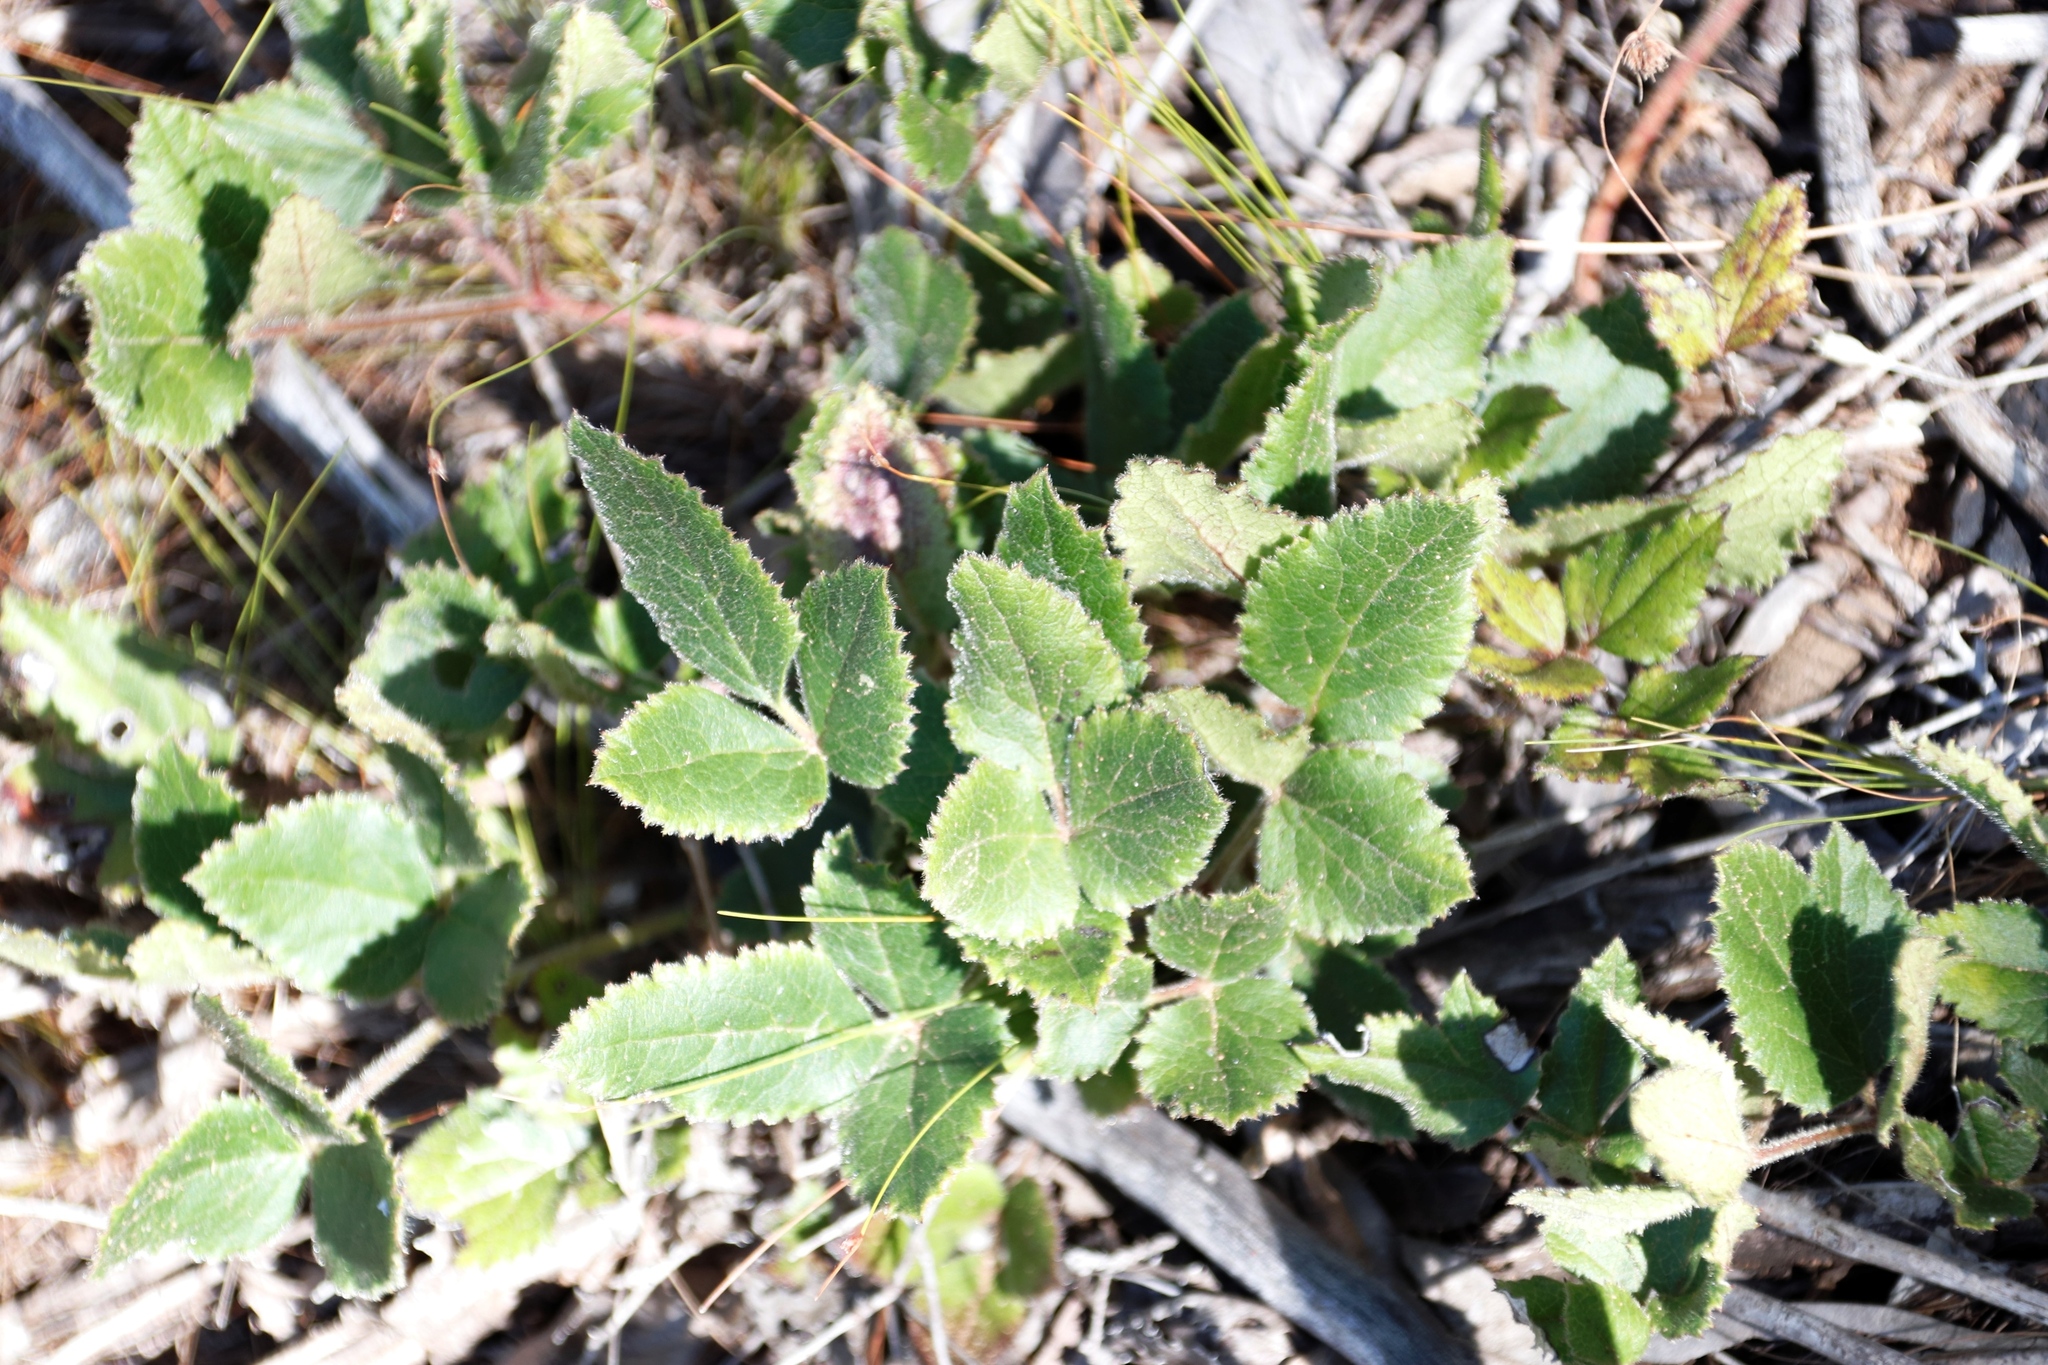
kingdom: Plantae
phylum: Tracheophyta
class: Magnoliopsida
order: Ranunculales
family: Ranunculaceae
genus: Knowltonia
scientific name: Knowltonia capensis
